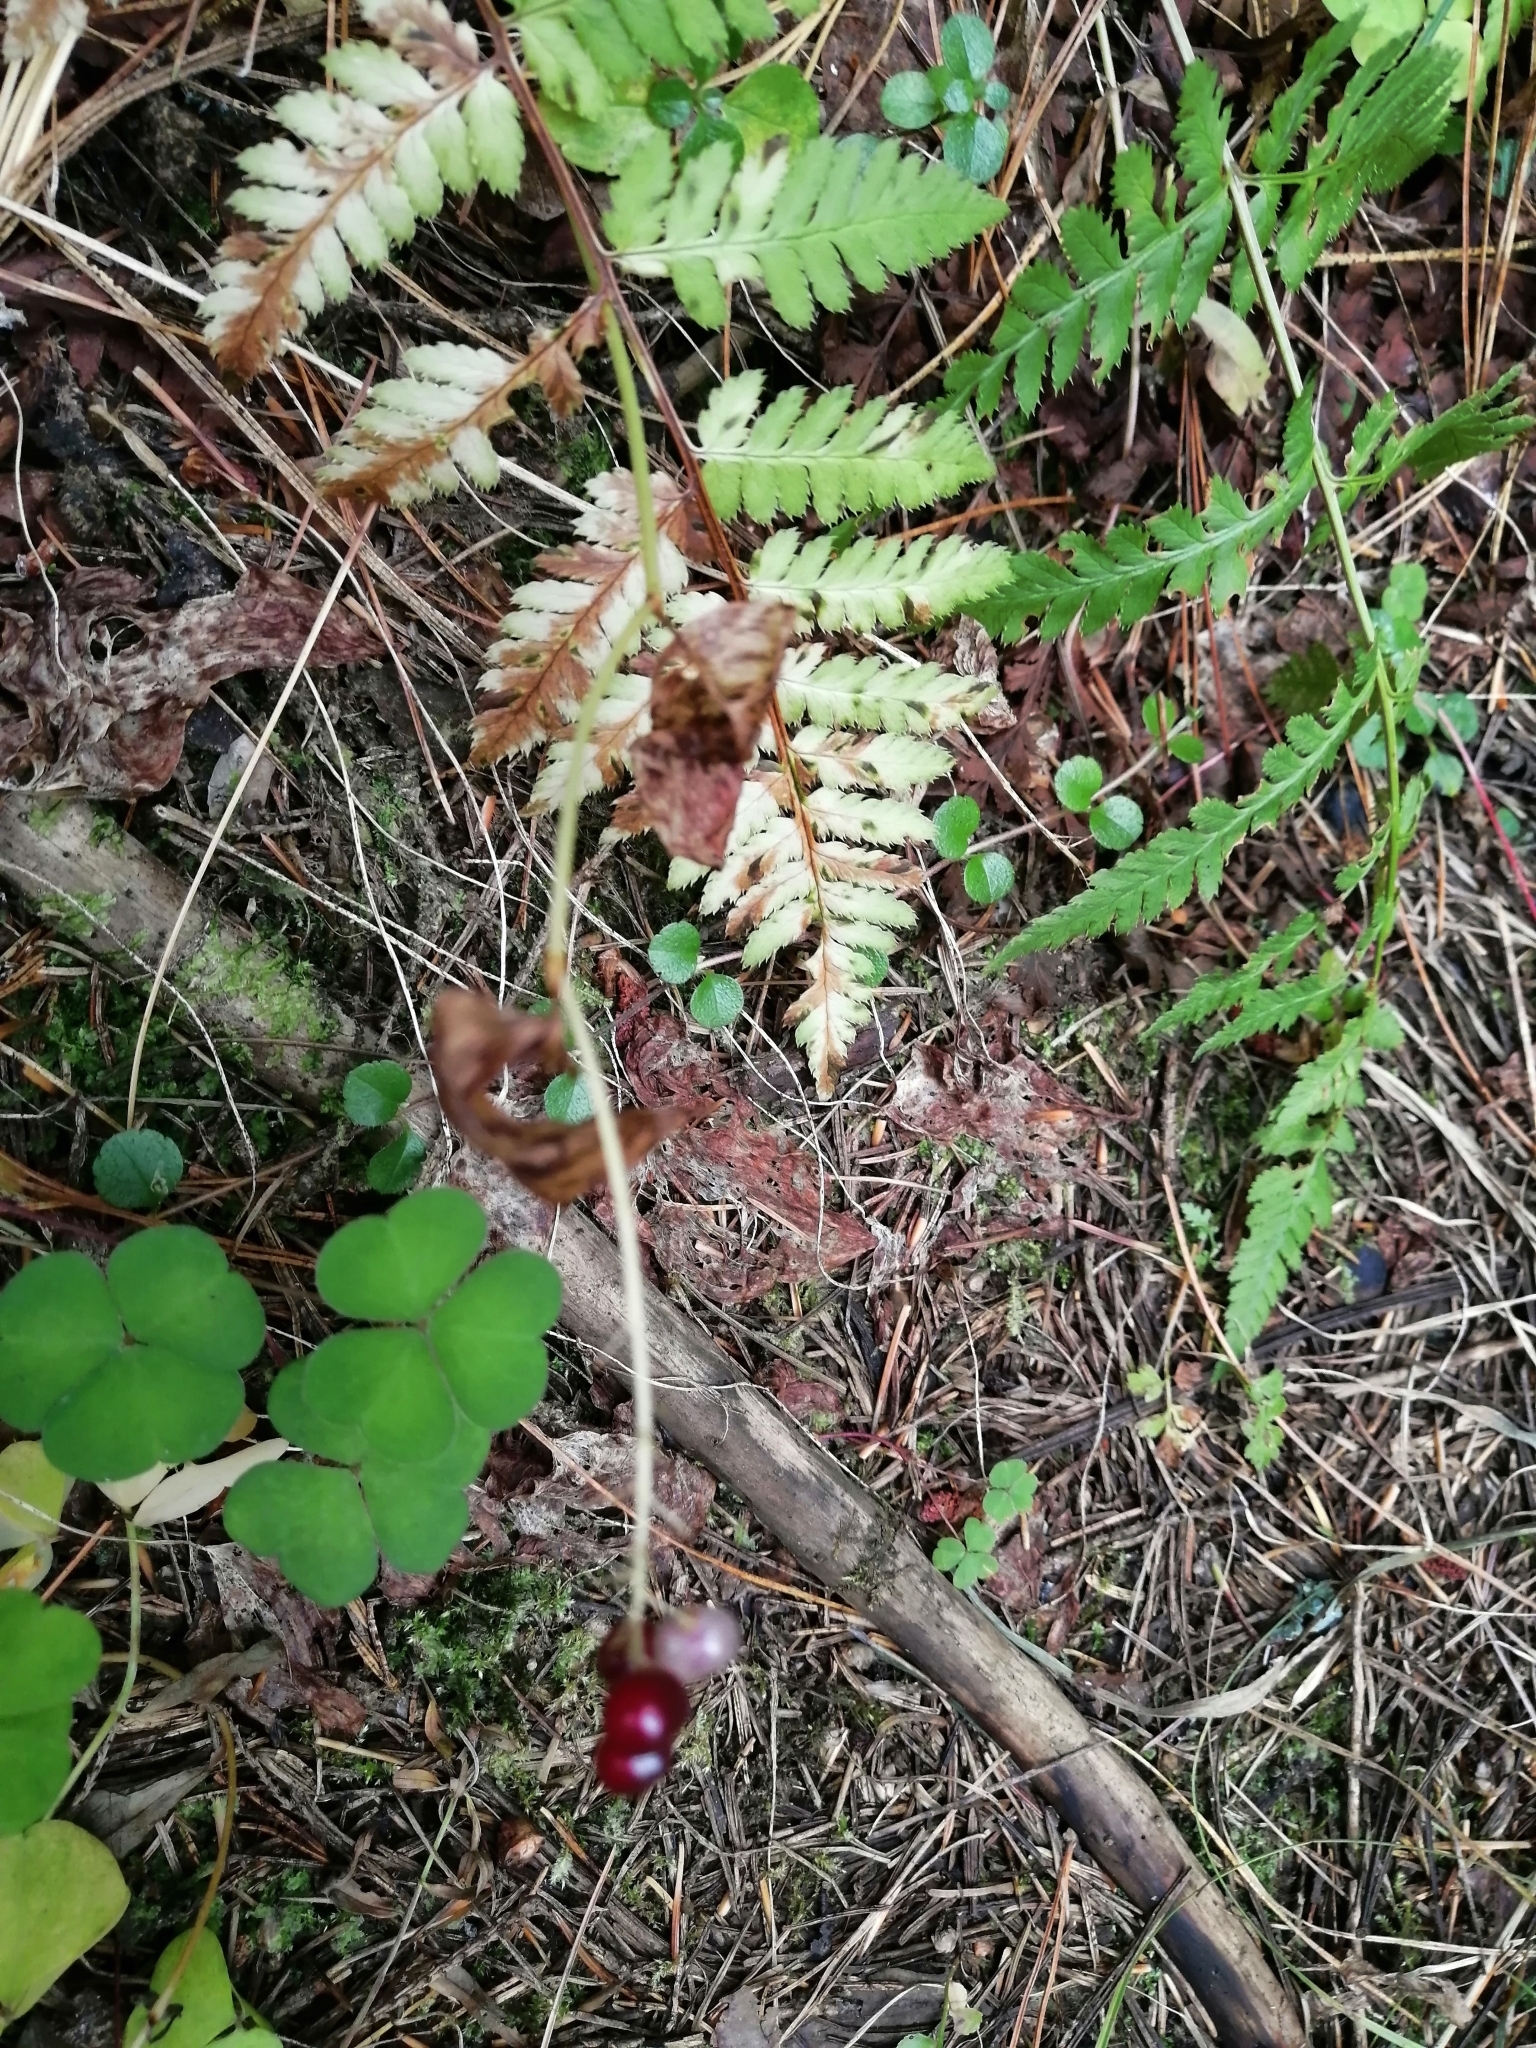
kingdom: Plantae
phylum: Tracheophyta
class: Liliopsida
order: Asparagales
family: Asparagaceae
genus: Maianthemum
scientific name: Maianthemum bifolium
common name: May lily
